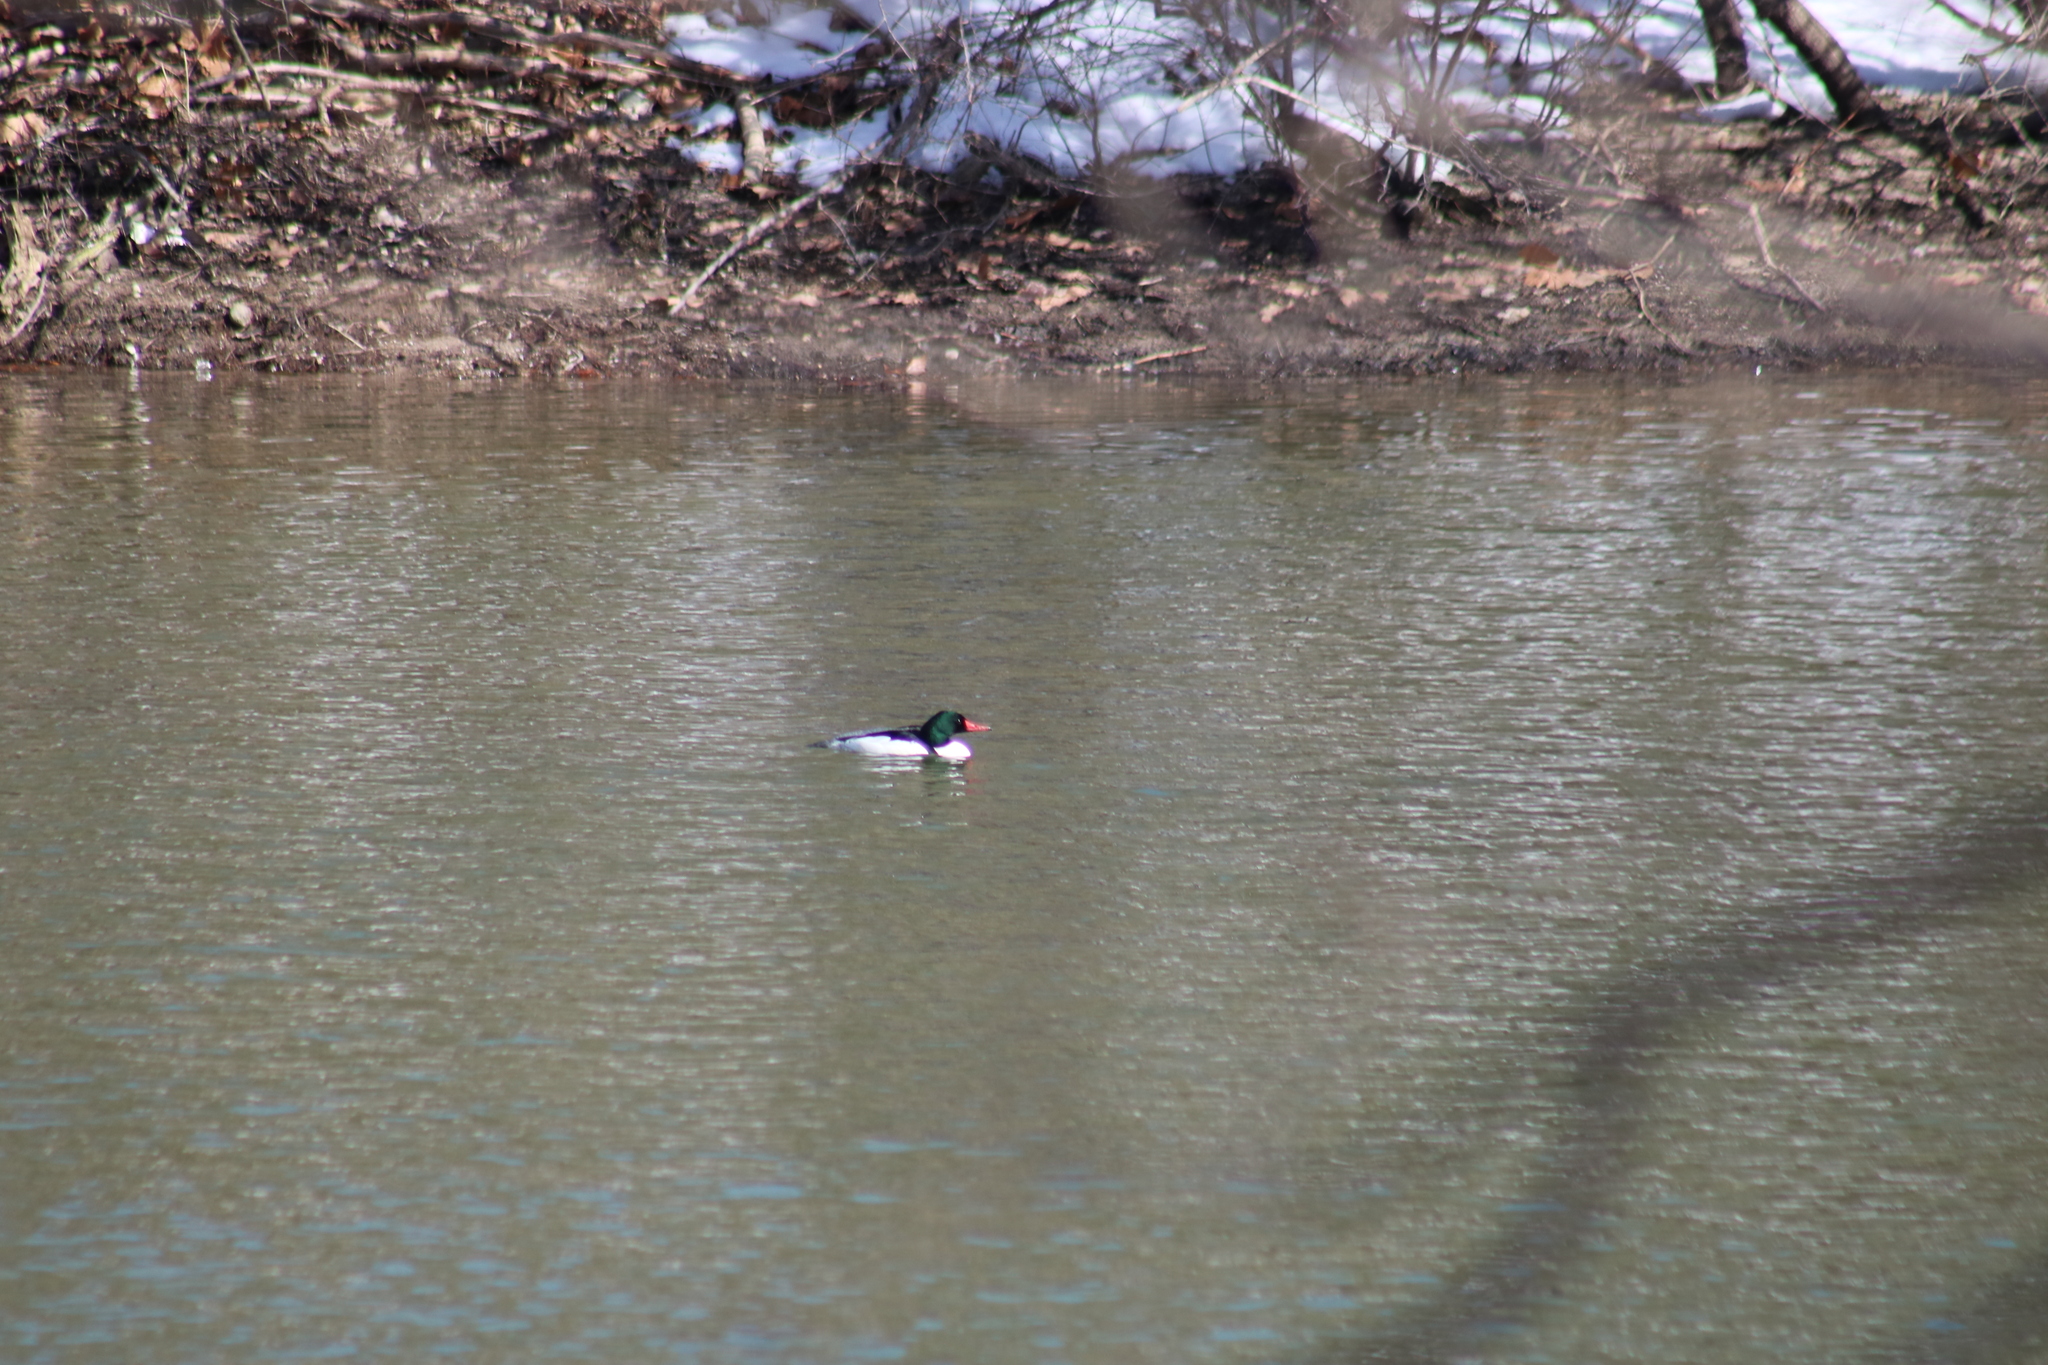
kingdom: Animalia
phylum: Chordata
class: Aves
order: Anseriformes
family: Anatidae
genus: Mergus
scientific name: Mergus merganser
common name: Common merganser
